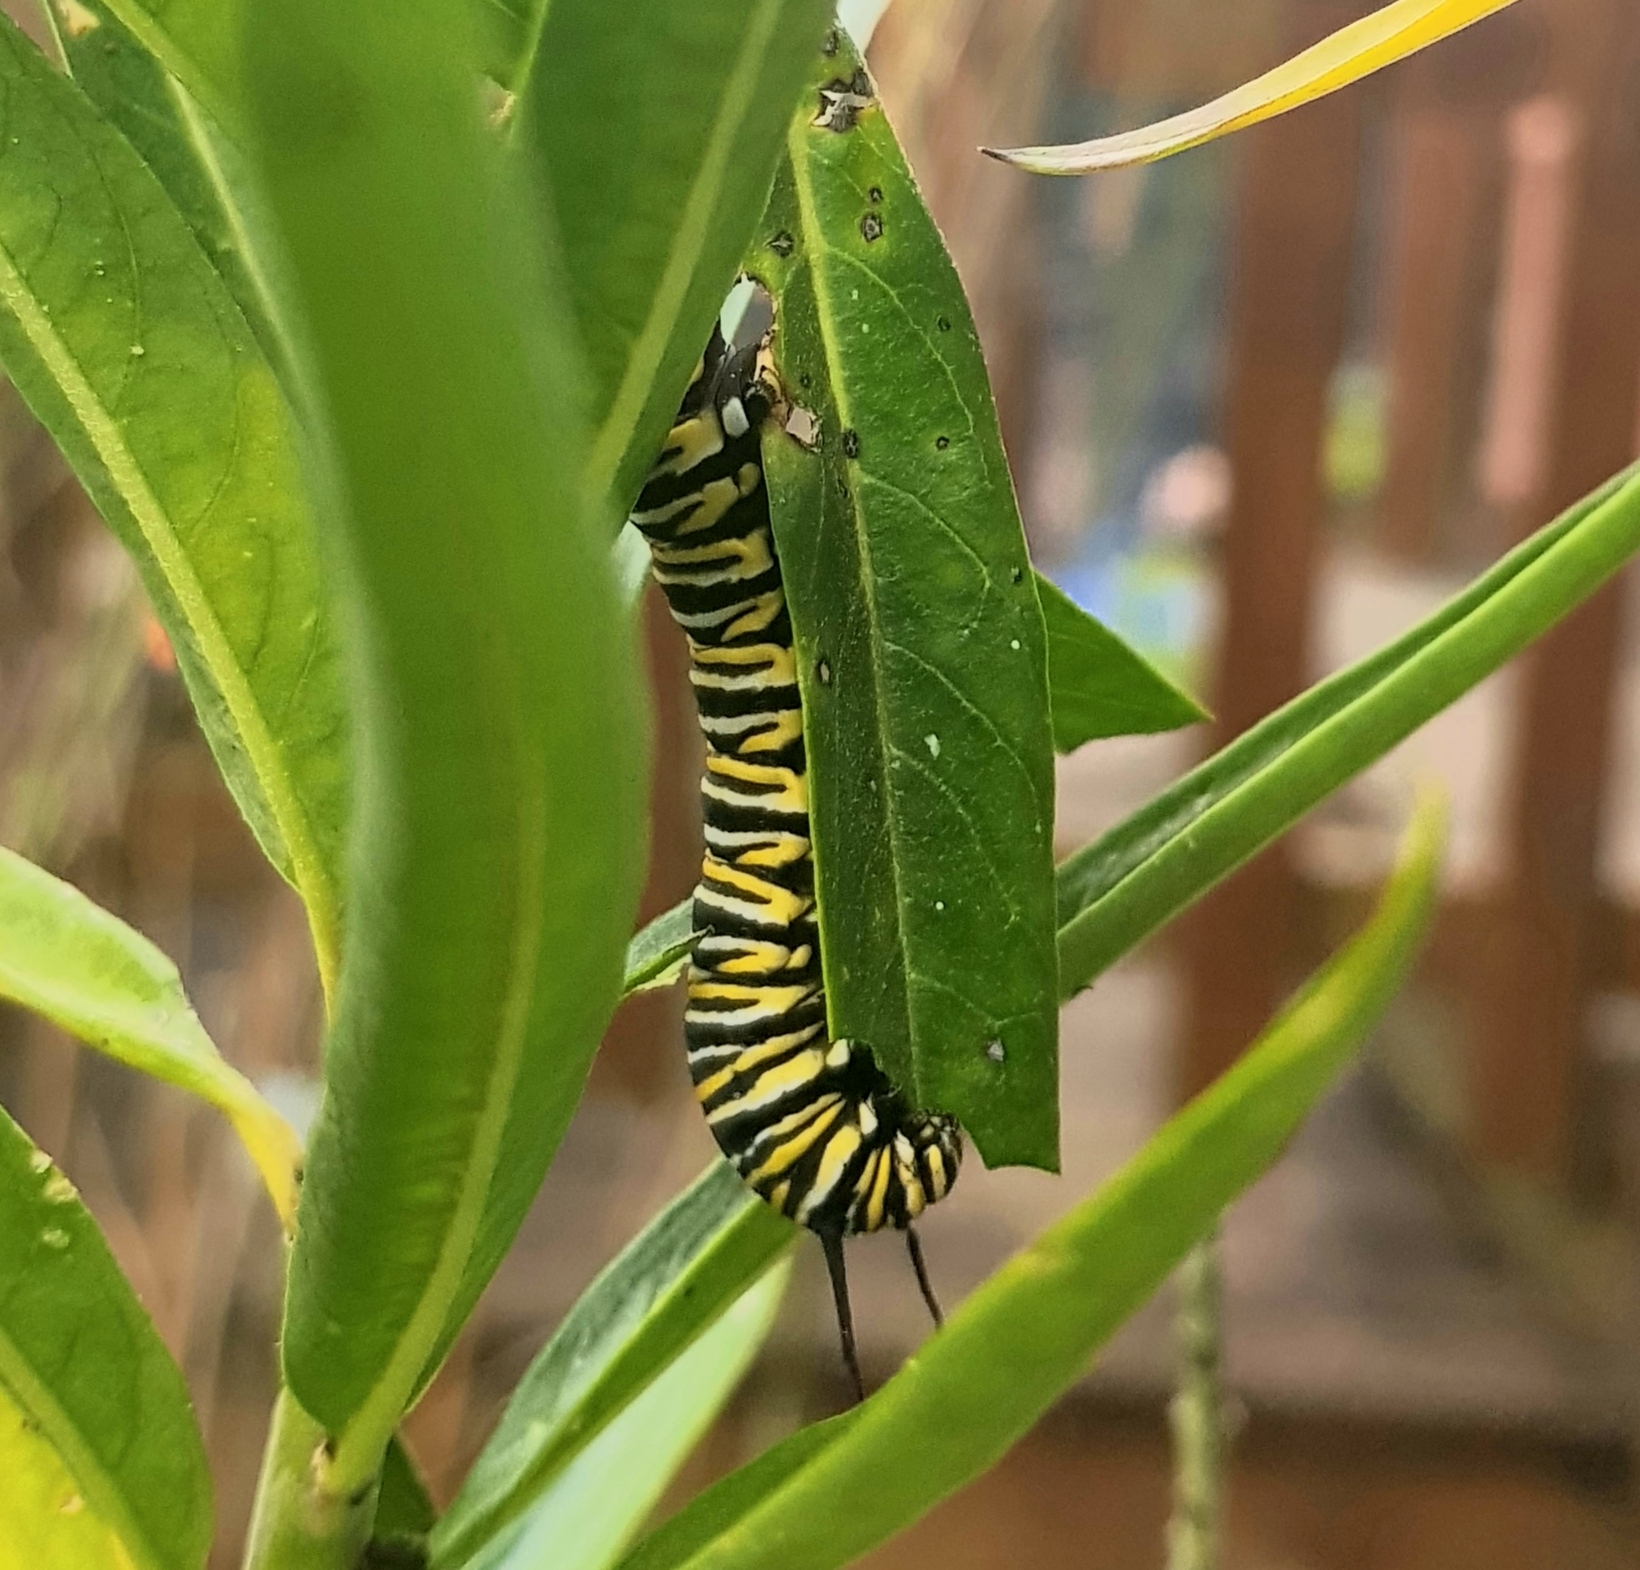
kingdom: Animalia
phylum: Arthropoda
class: Insecta
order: Lepidoptera
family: Nymphalidae
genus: Danaus
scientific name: Danaus plexippus
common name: Monarch
